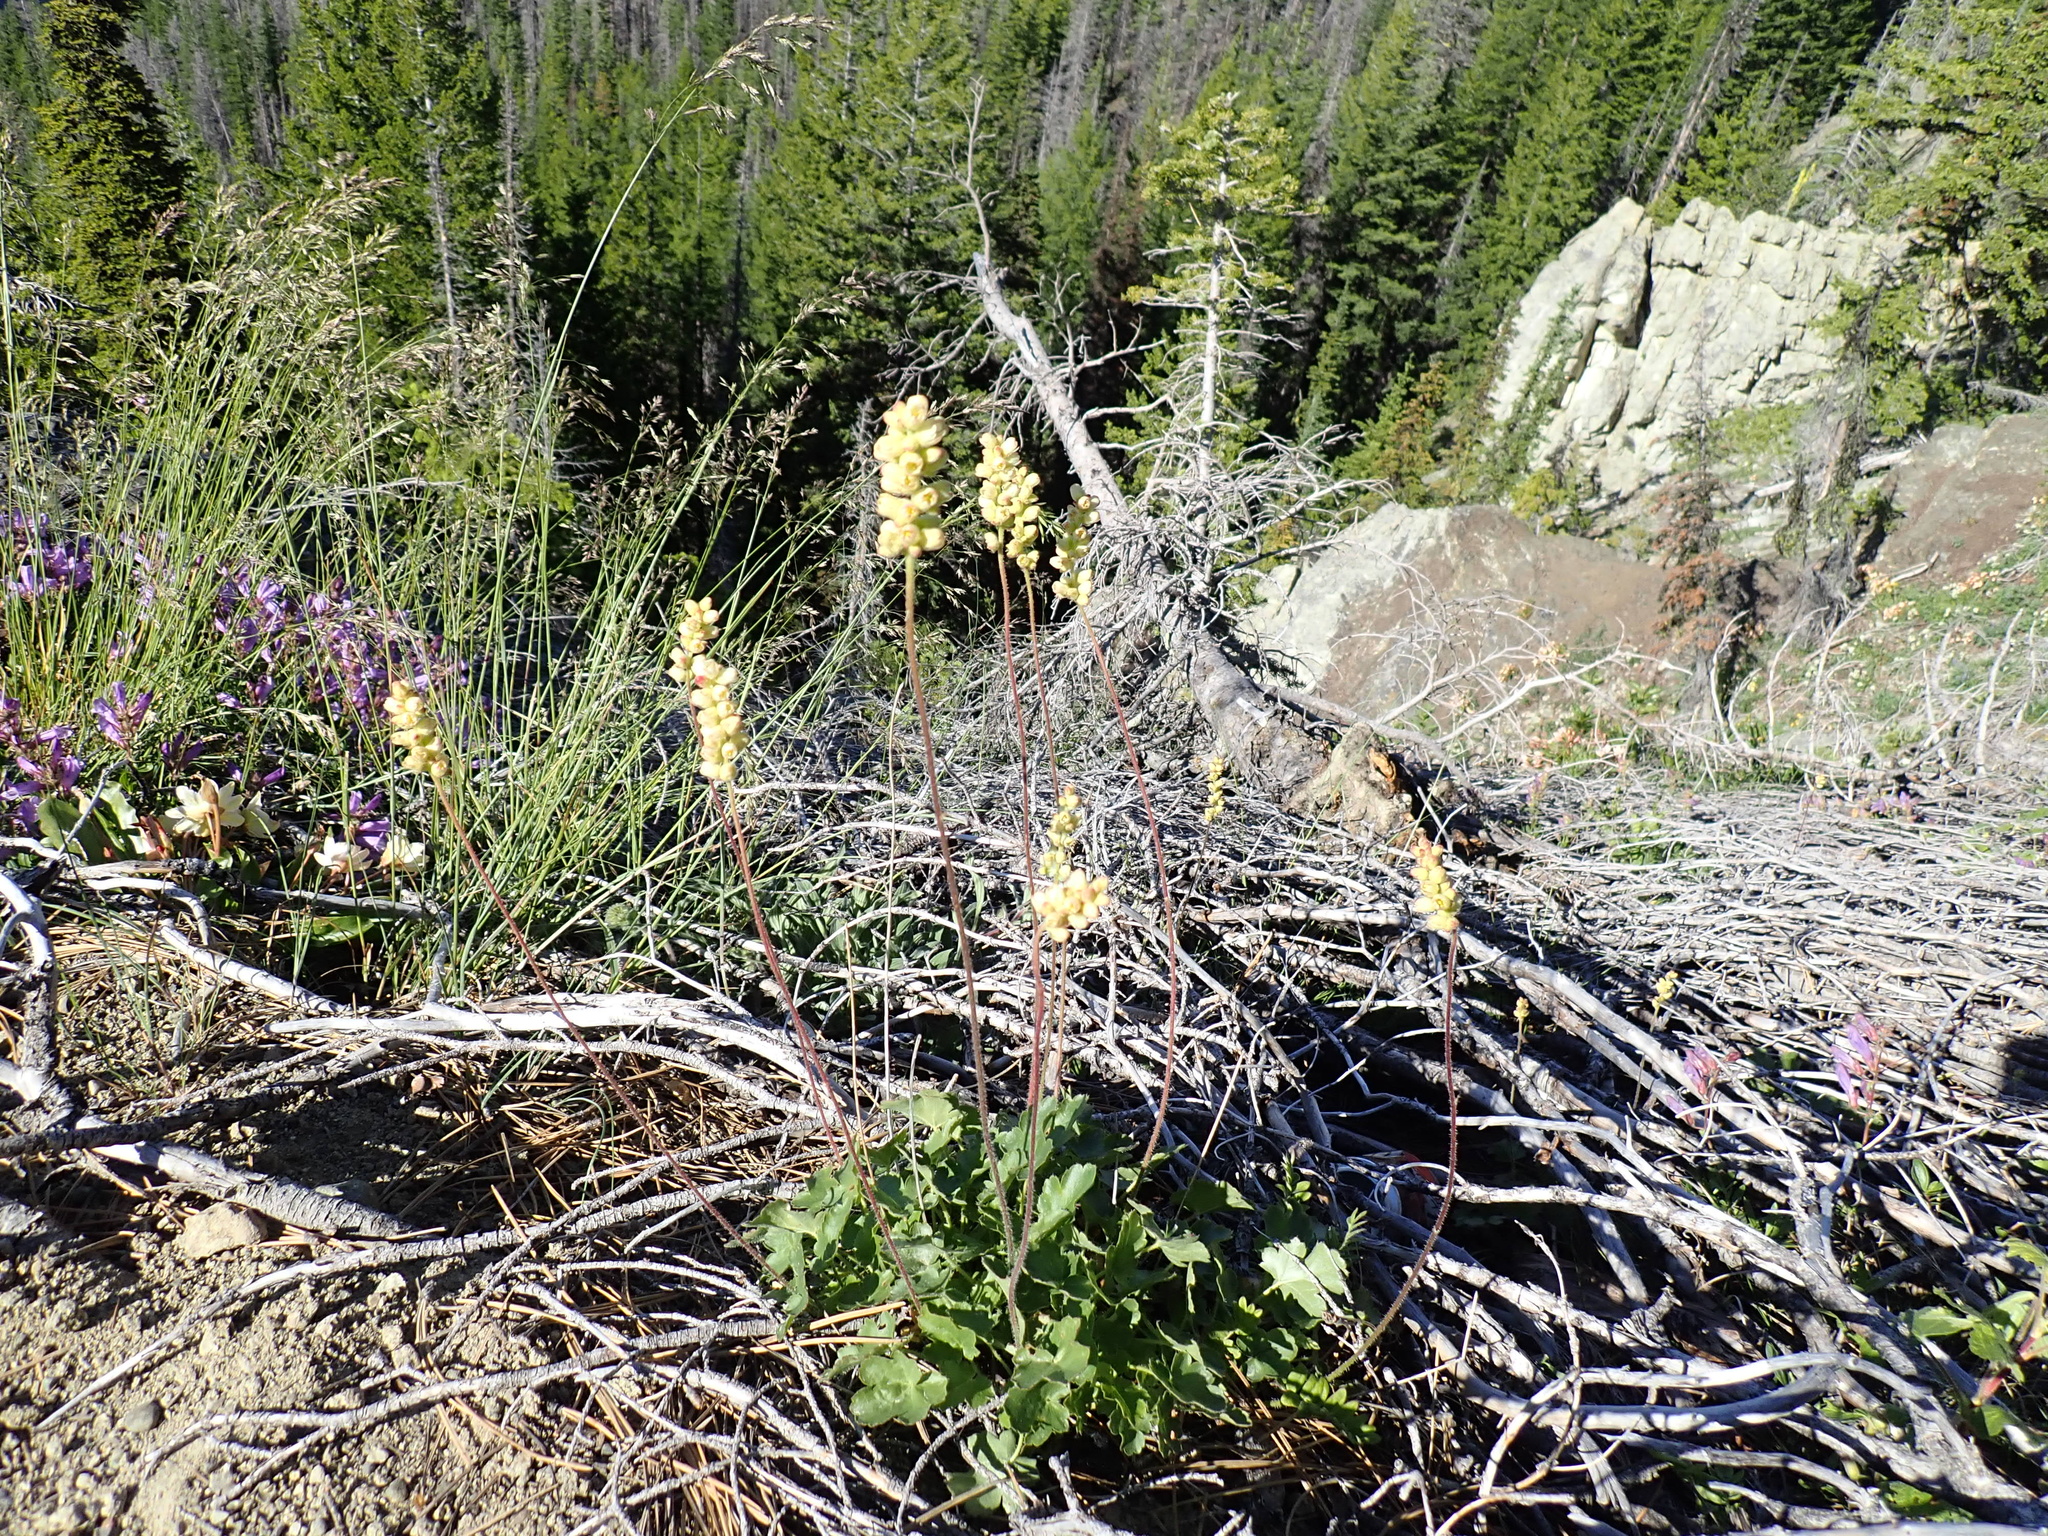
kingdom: Plantae
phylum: Tracheophyta
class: Magnoliopsida
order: Saxifragales
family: Saxifragaceae
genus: Heuchera
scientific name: Heuchera cylindrica
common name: Mat alumroot
